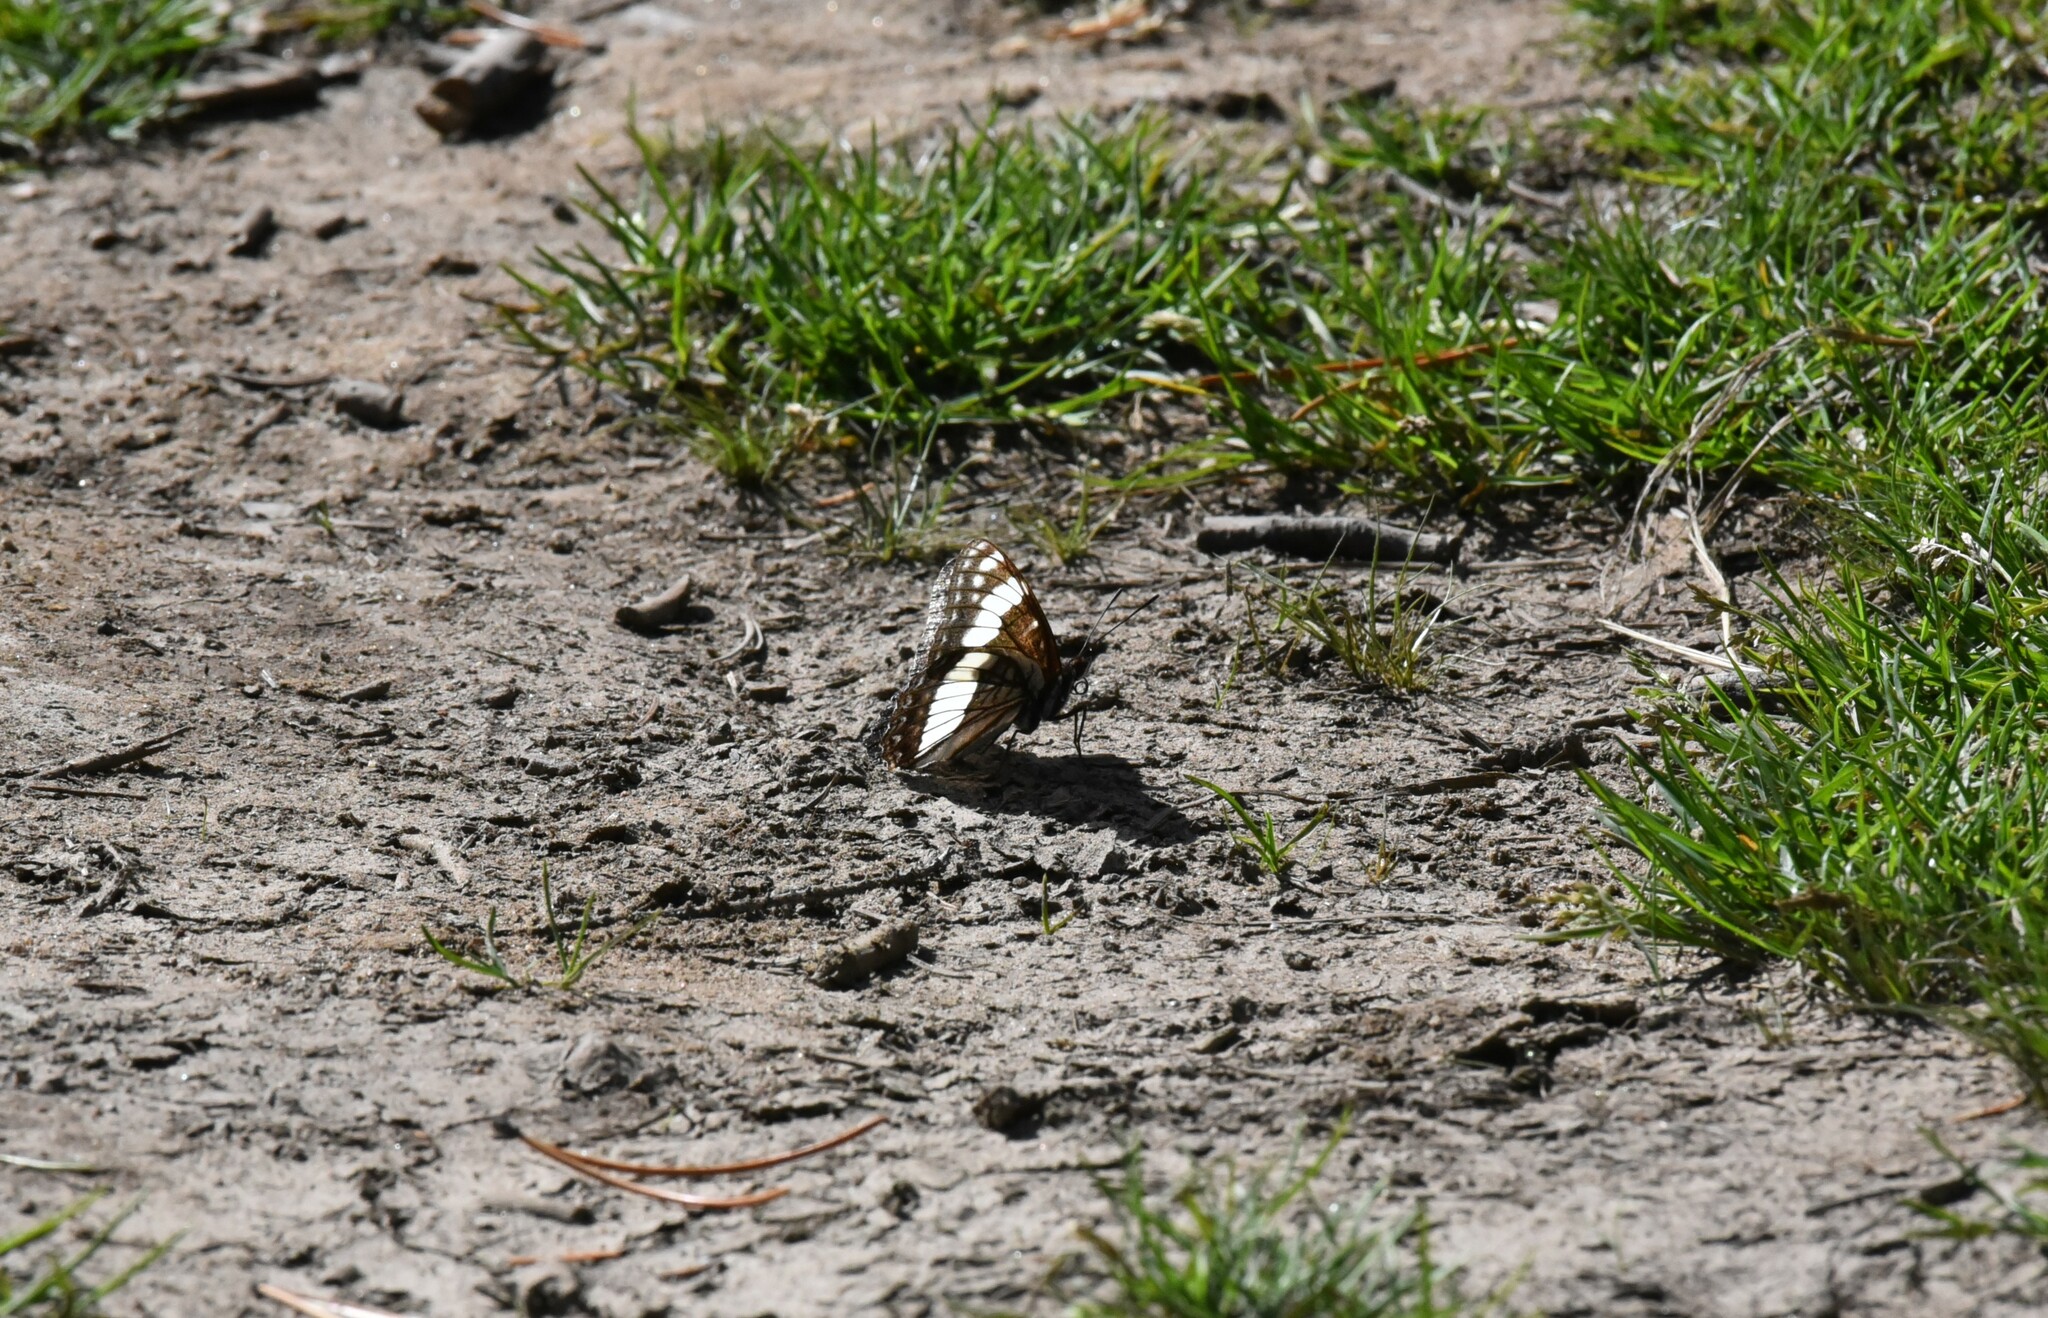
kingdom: Animalia
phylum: Arthropoda
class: Insecta
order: Lepidoptera
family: Nymphalidae
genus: Limenitis
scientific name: Limenitis weidemeyerii
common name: Weidemeyer's admiral
